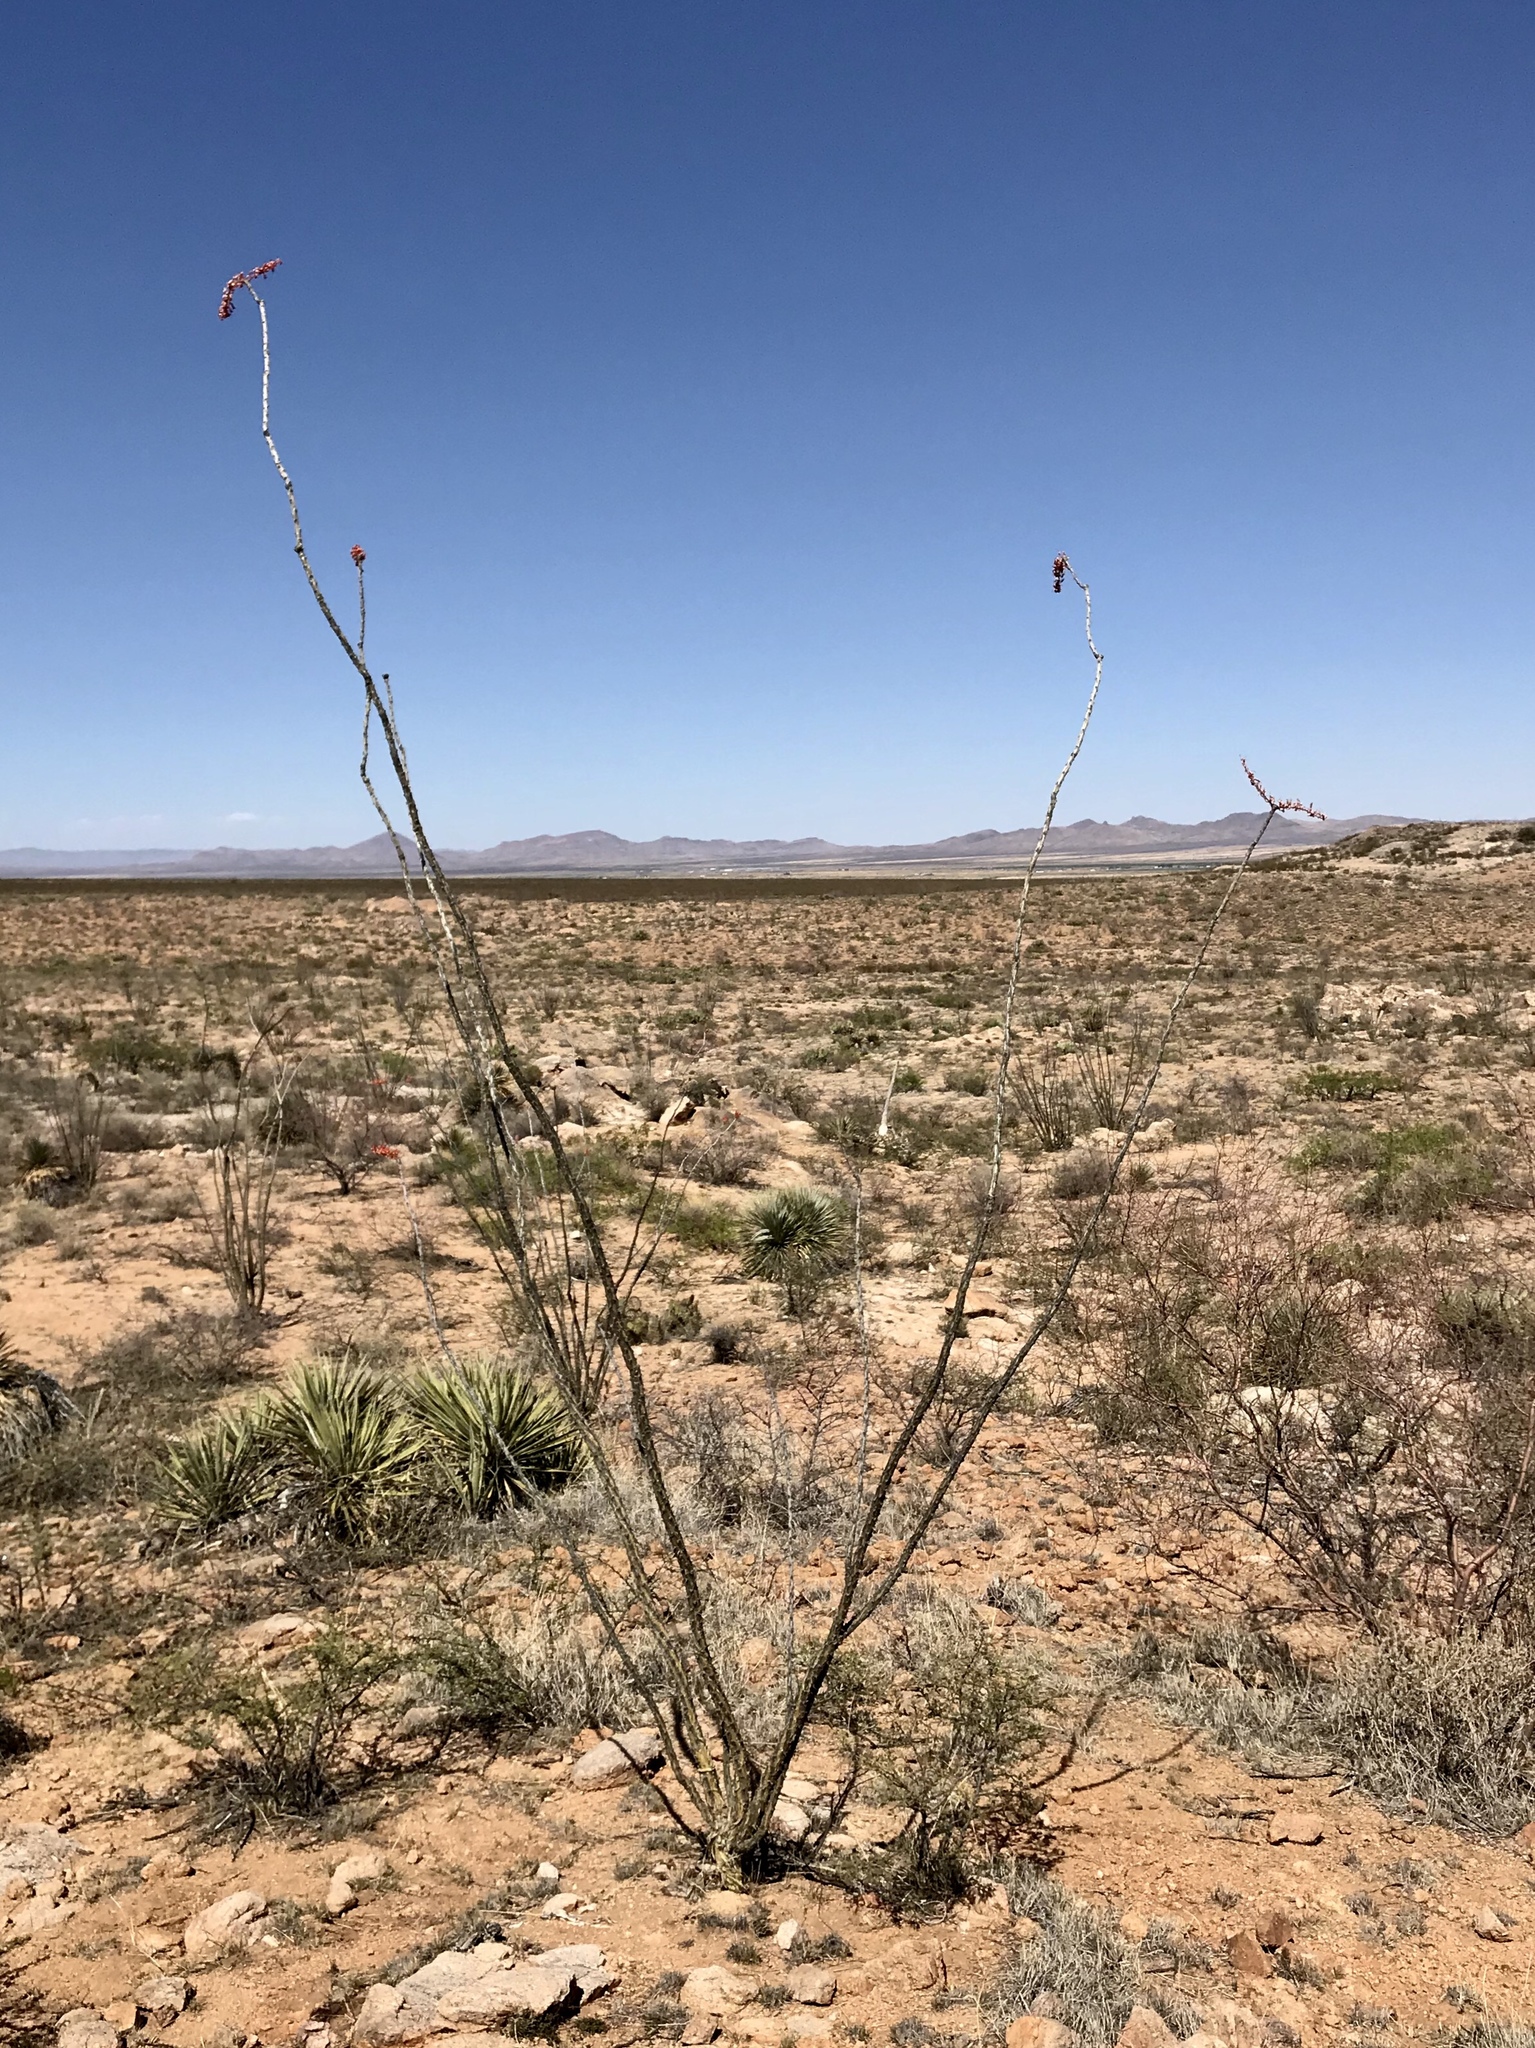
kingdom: Plantae
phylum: Tracheophyta
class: Magnoliopsida
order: Ericales
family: Fouquieriaceae
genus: Fouquieria
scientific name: Fouquieria splendens
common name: Vine-cactus
